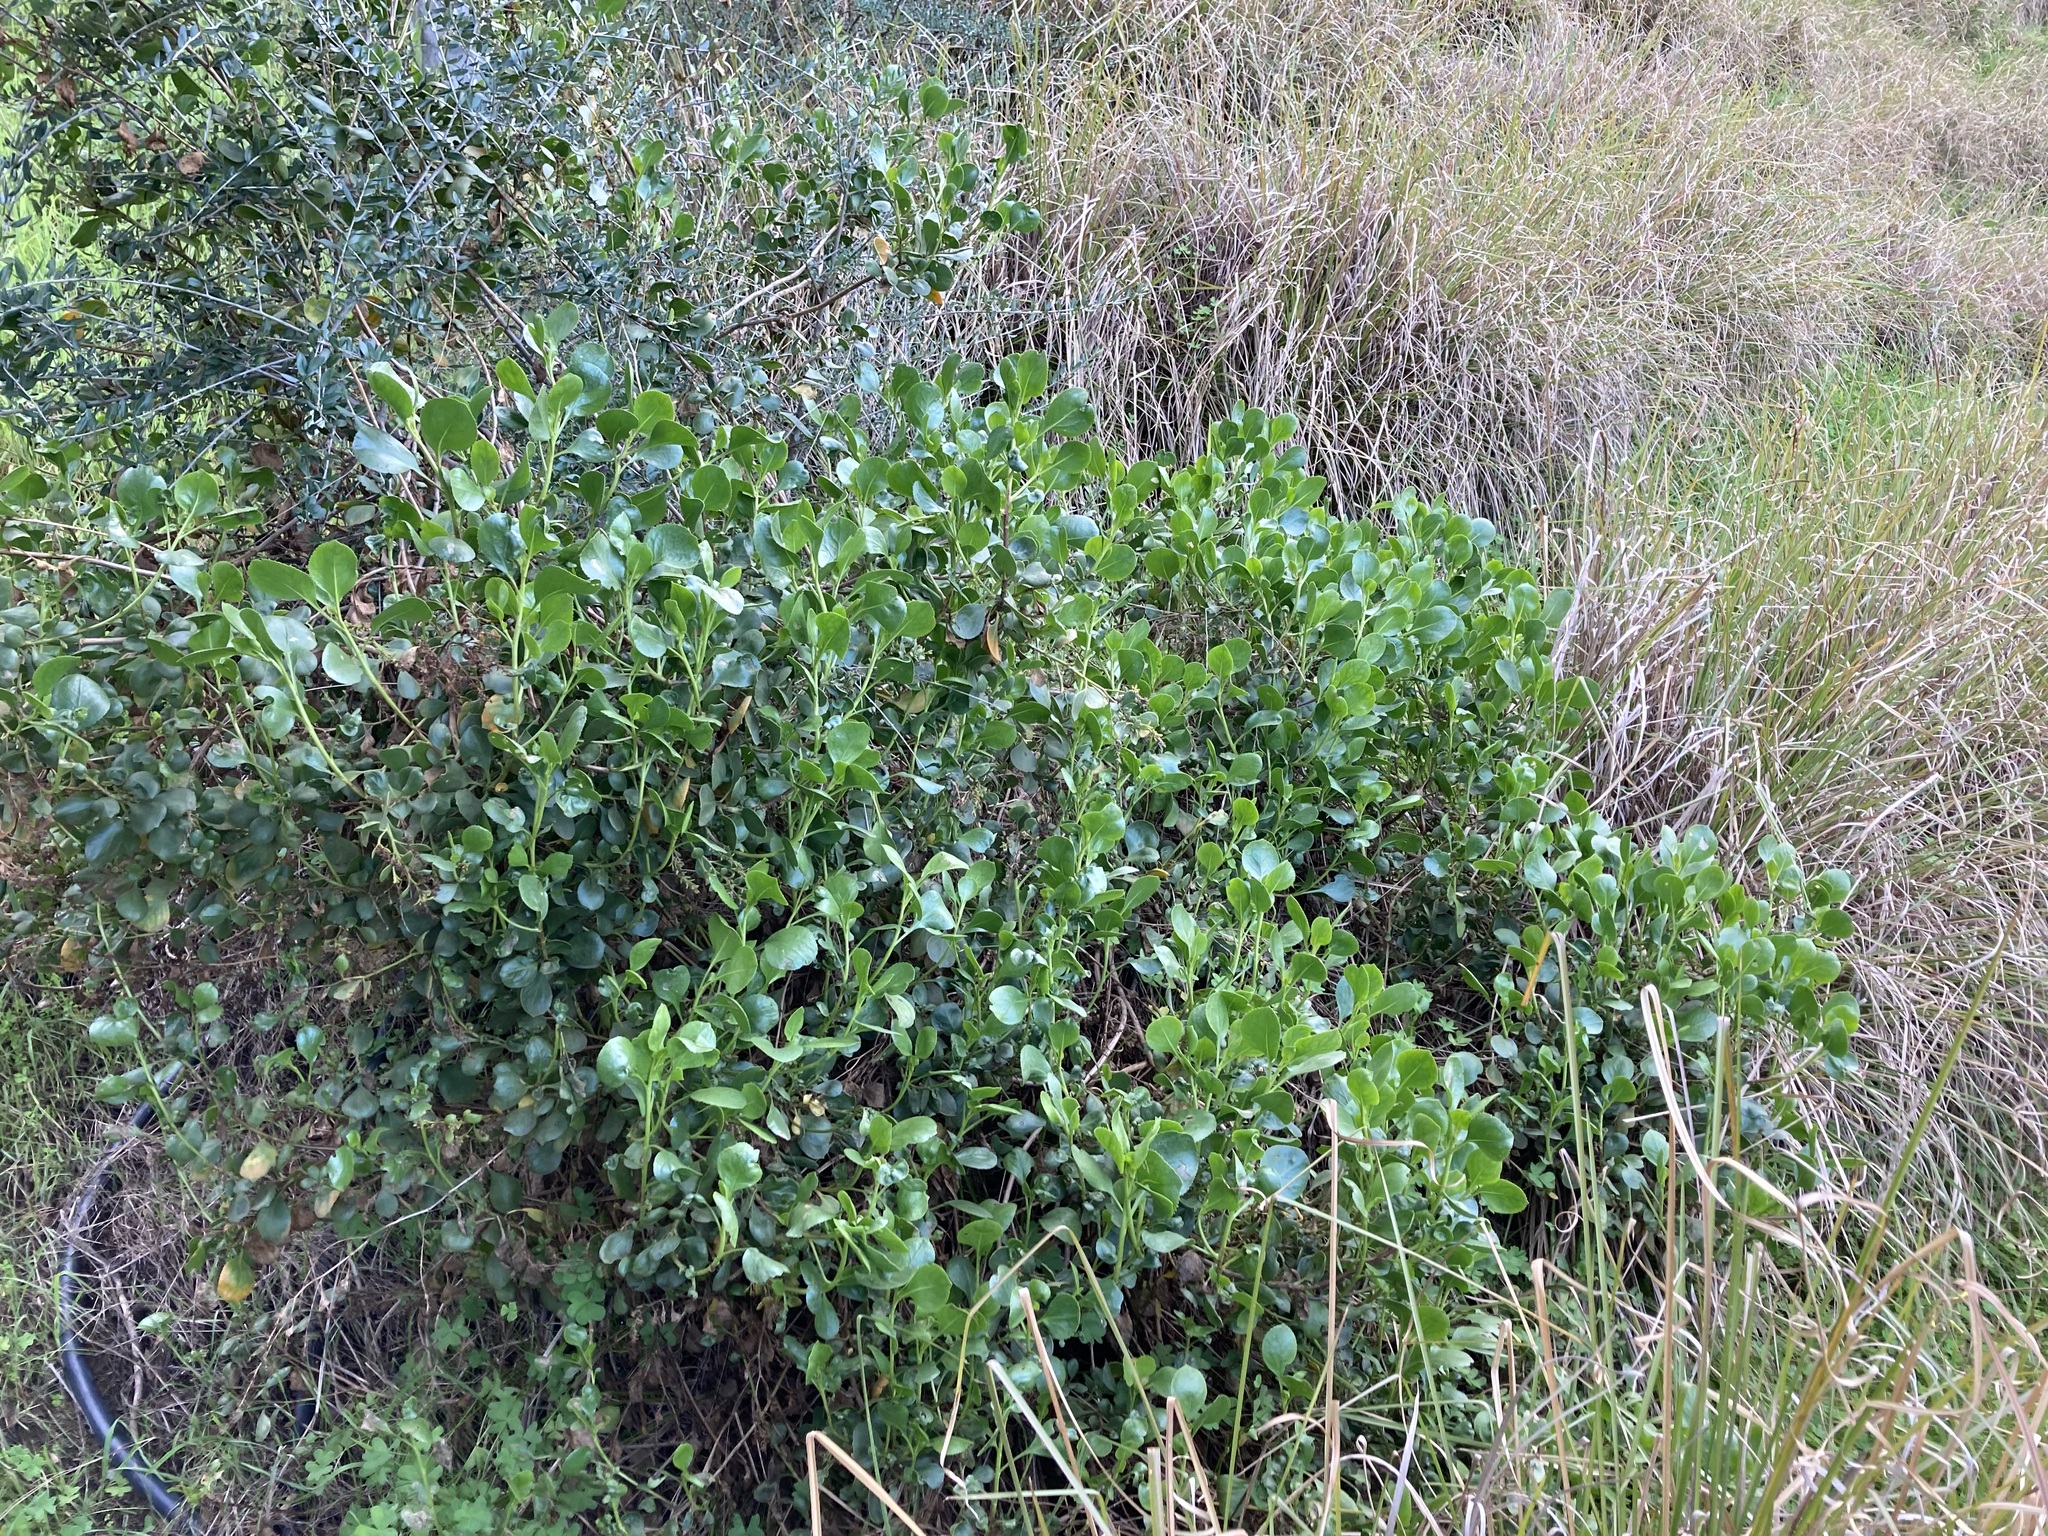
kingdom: Plantae
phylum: Tracheophyta
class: Magnoliopsida
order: Asterales
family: Goodeniaceae
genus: Scaevola
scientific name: Scaevola crassifolia
